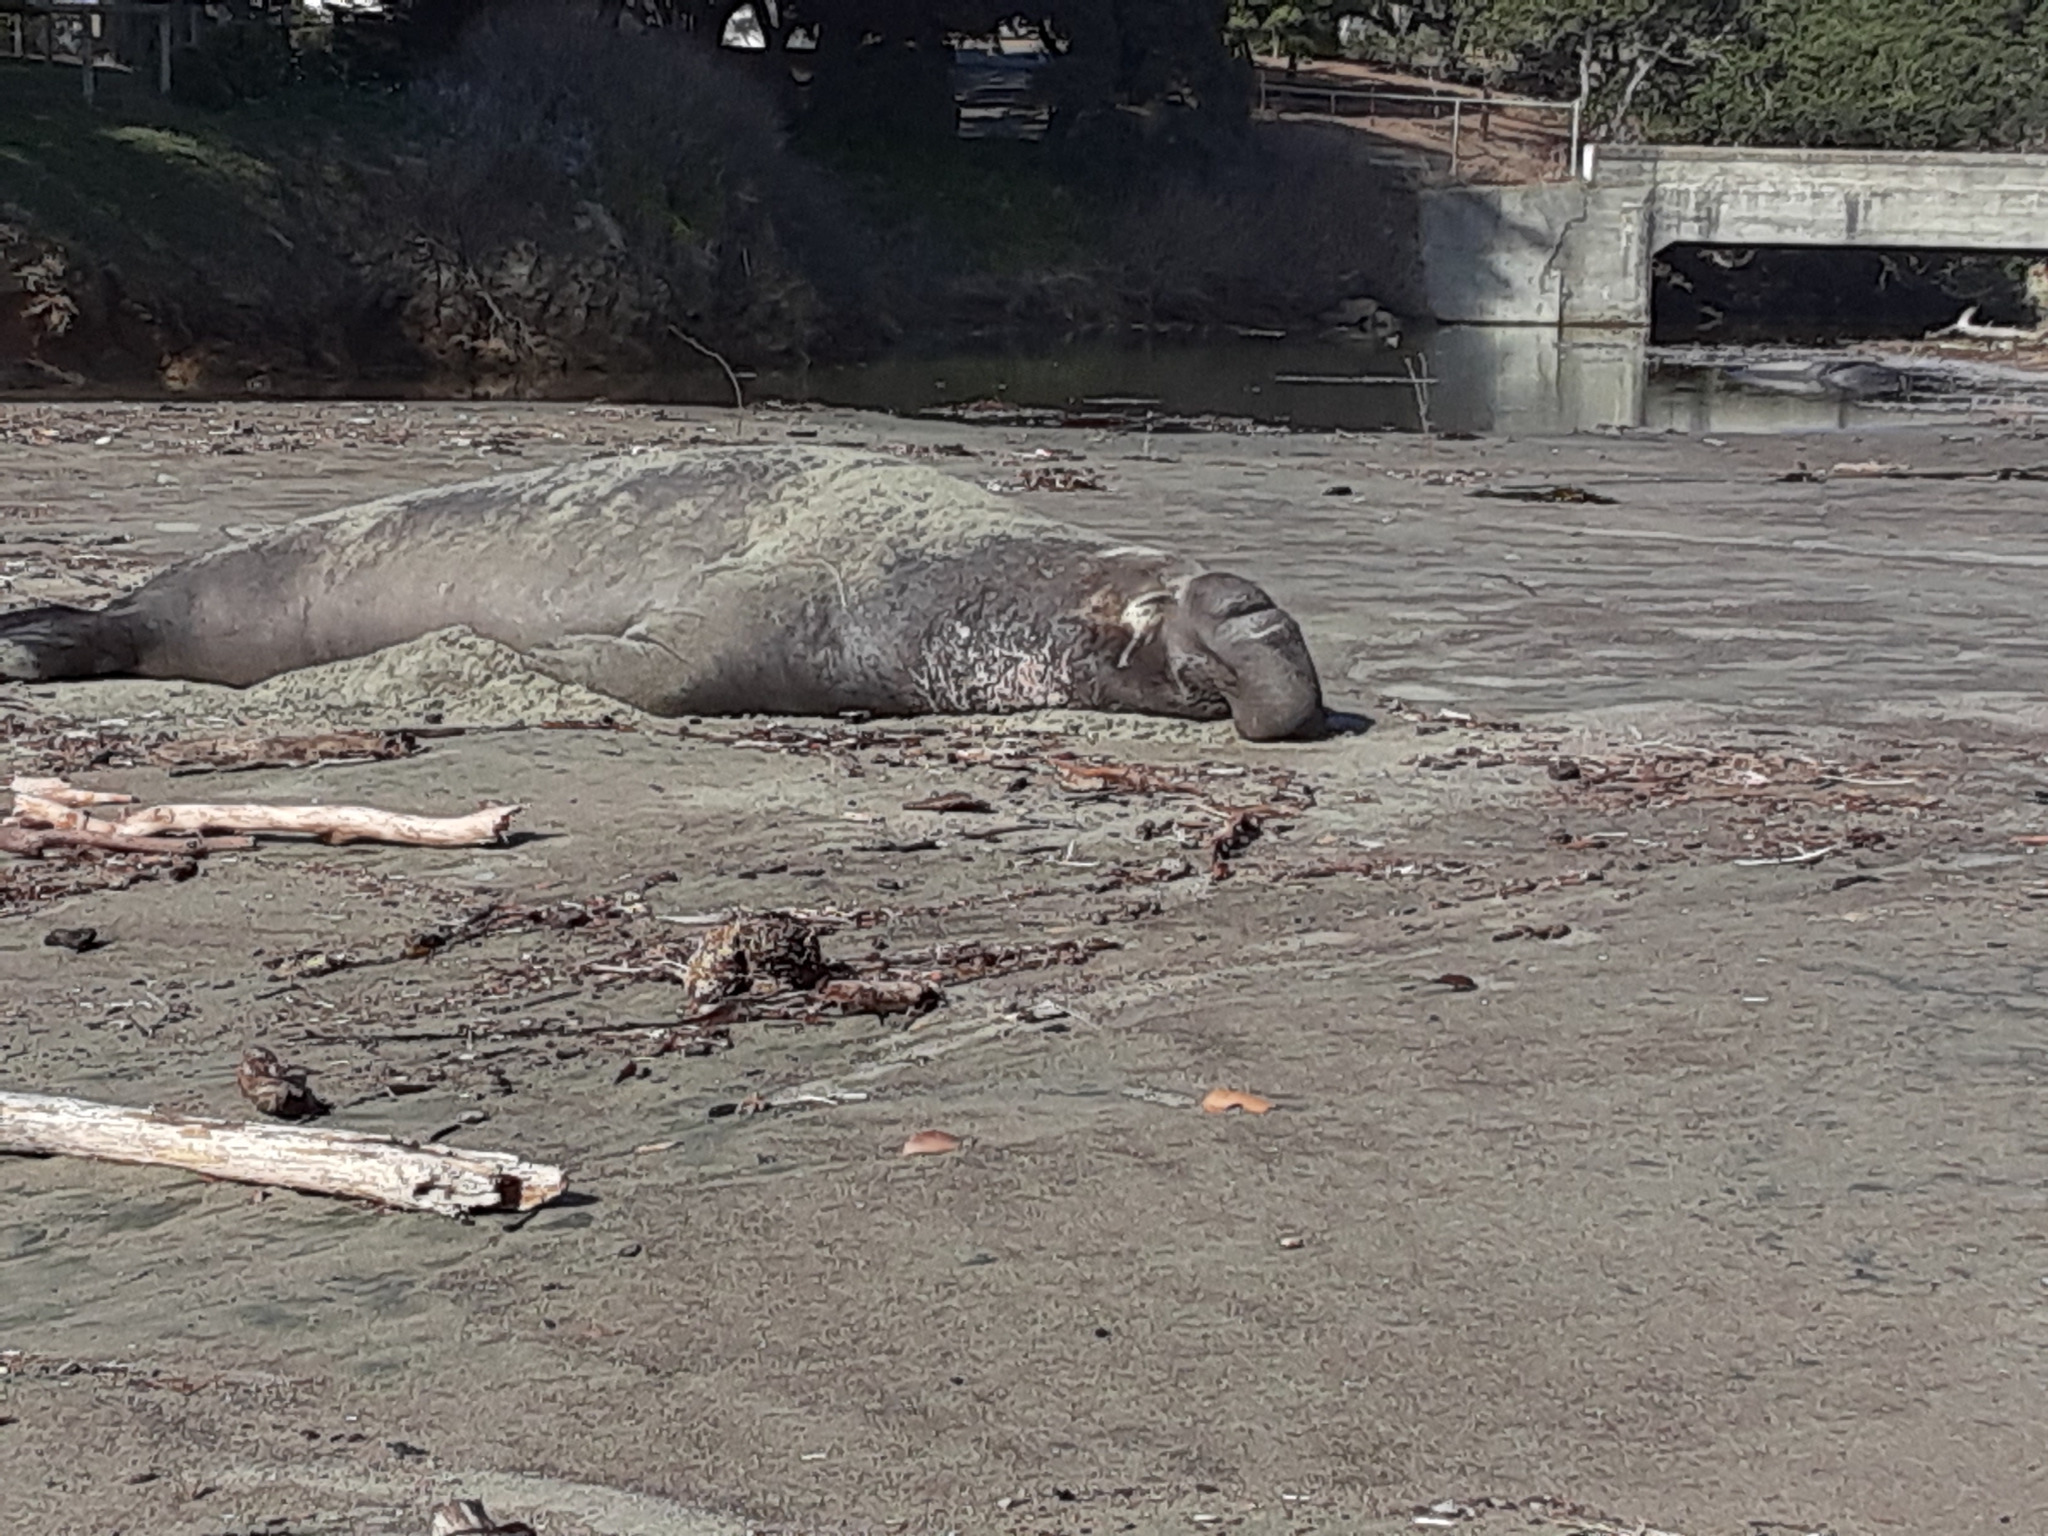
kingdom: Animalia
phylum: Chordata
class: Mammalia
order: Carnivora
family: Phocidae
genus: Mirounga
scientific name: Mirounga angustirostris
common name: Northern elephant seal
